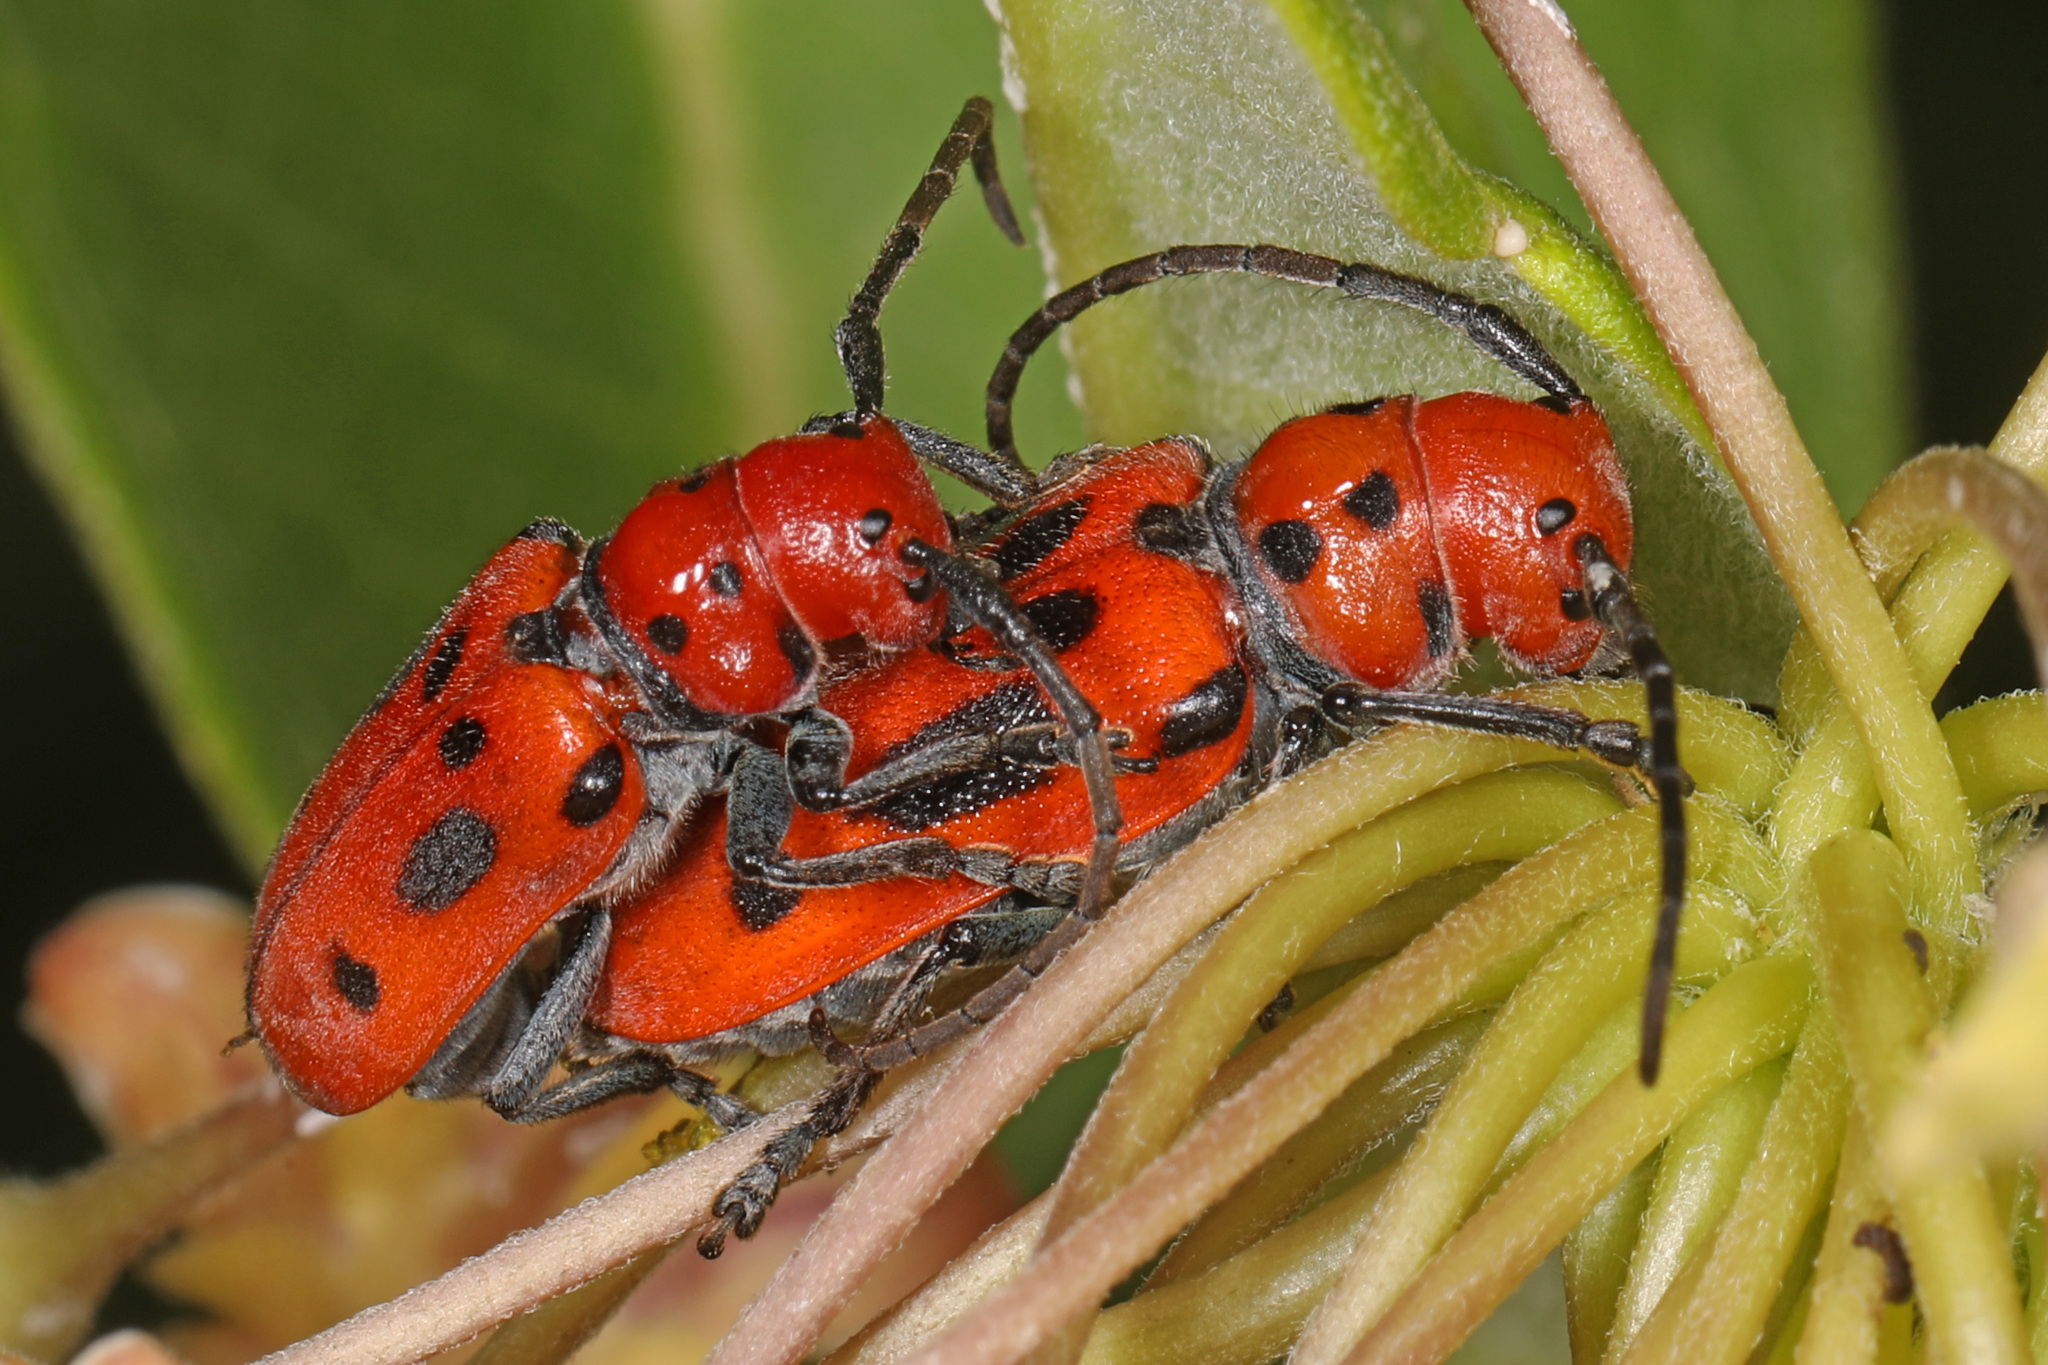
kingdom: Animalia
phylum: Arthropoda
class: Insecta
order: Coleoptera
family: Cerambycidae
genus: Tetraopes
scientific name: Tetraopes tetrophthalmus
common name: Red milkweed beetle
